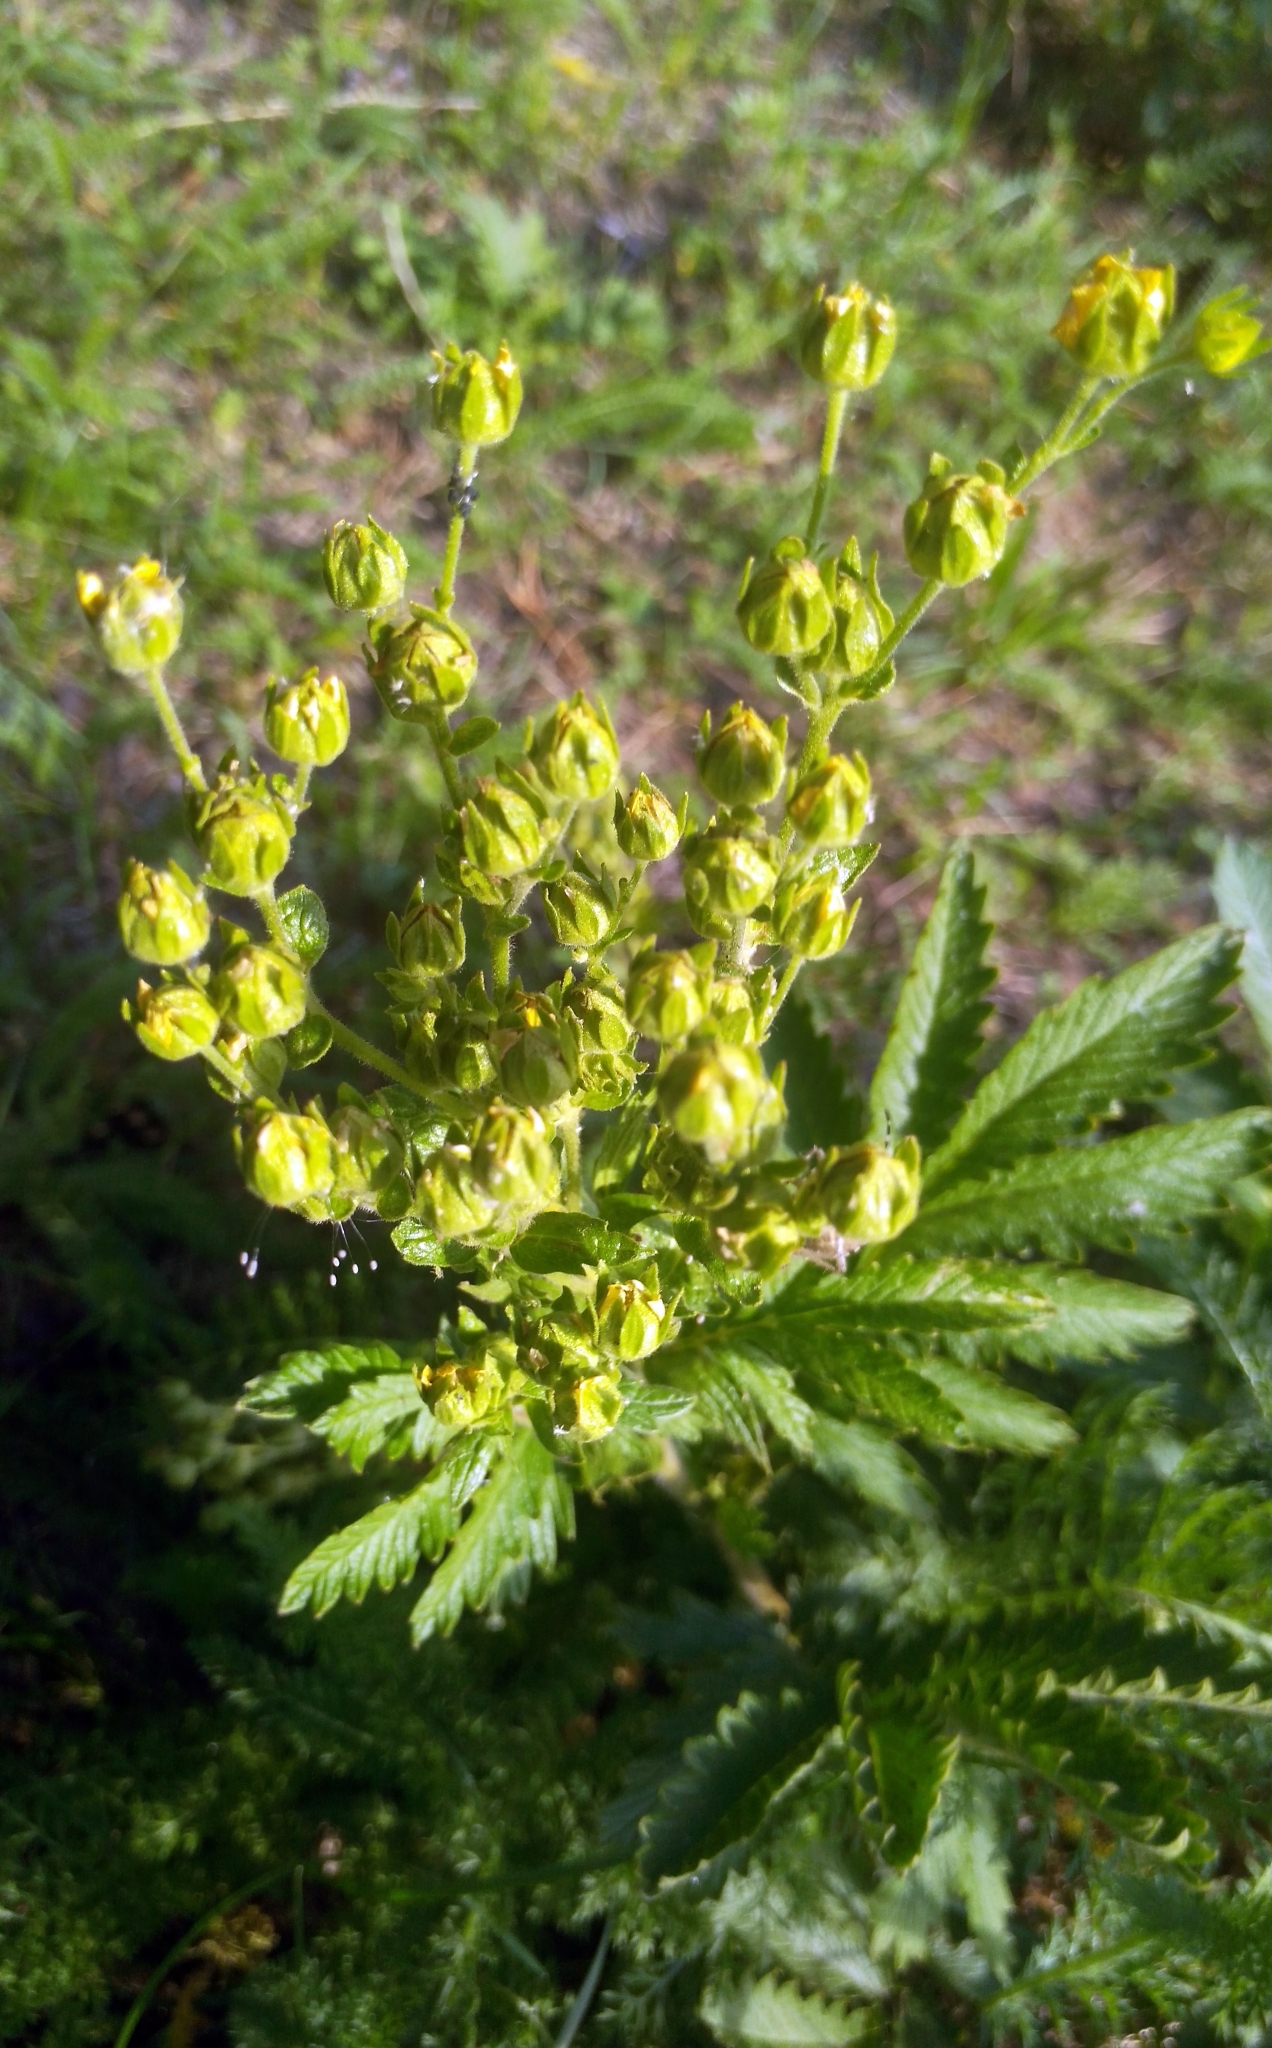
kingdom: Plantae
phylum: Tracheophyta
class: Magnoliopsida
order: Rosales
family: Rosaceae
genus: Potentilla
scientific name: Potentilla longifolia
